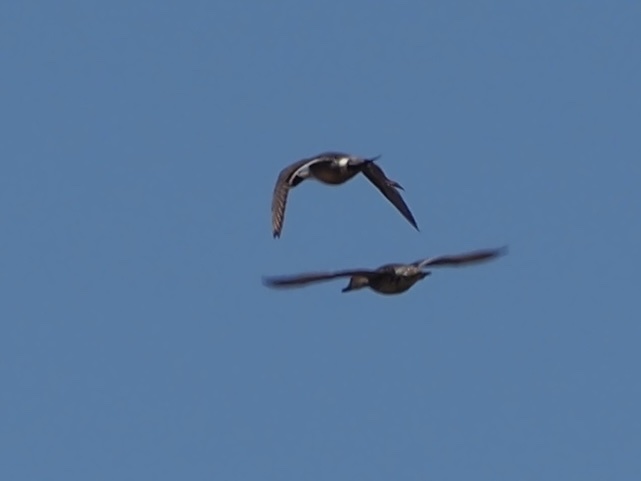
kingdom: Animalia
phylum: Chordata
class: Aves
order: Anseriformes
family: Anatidae
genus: Anas
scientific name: Anas acuta
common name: Northern pintail
